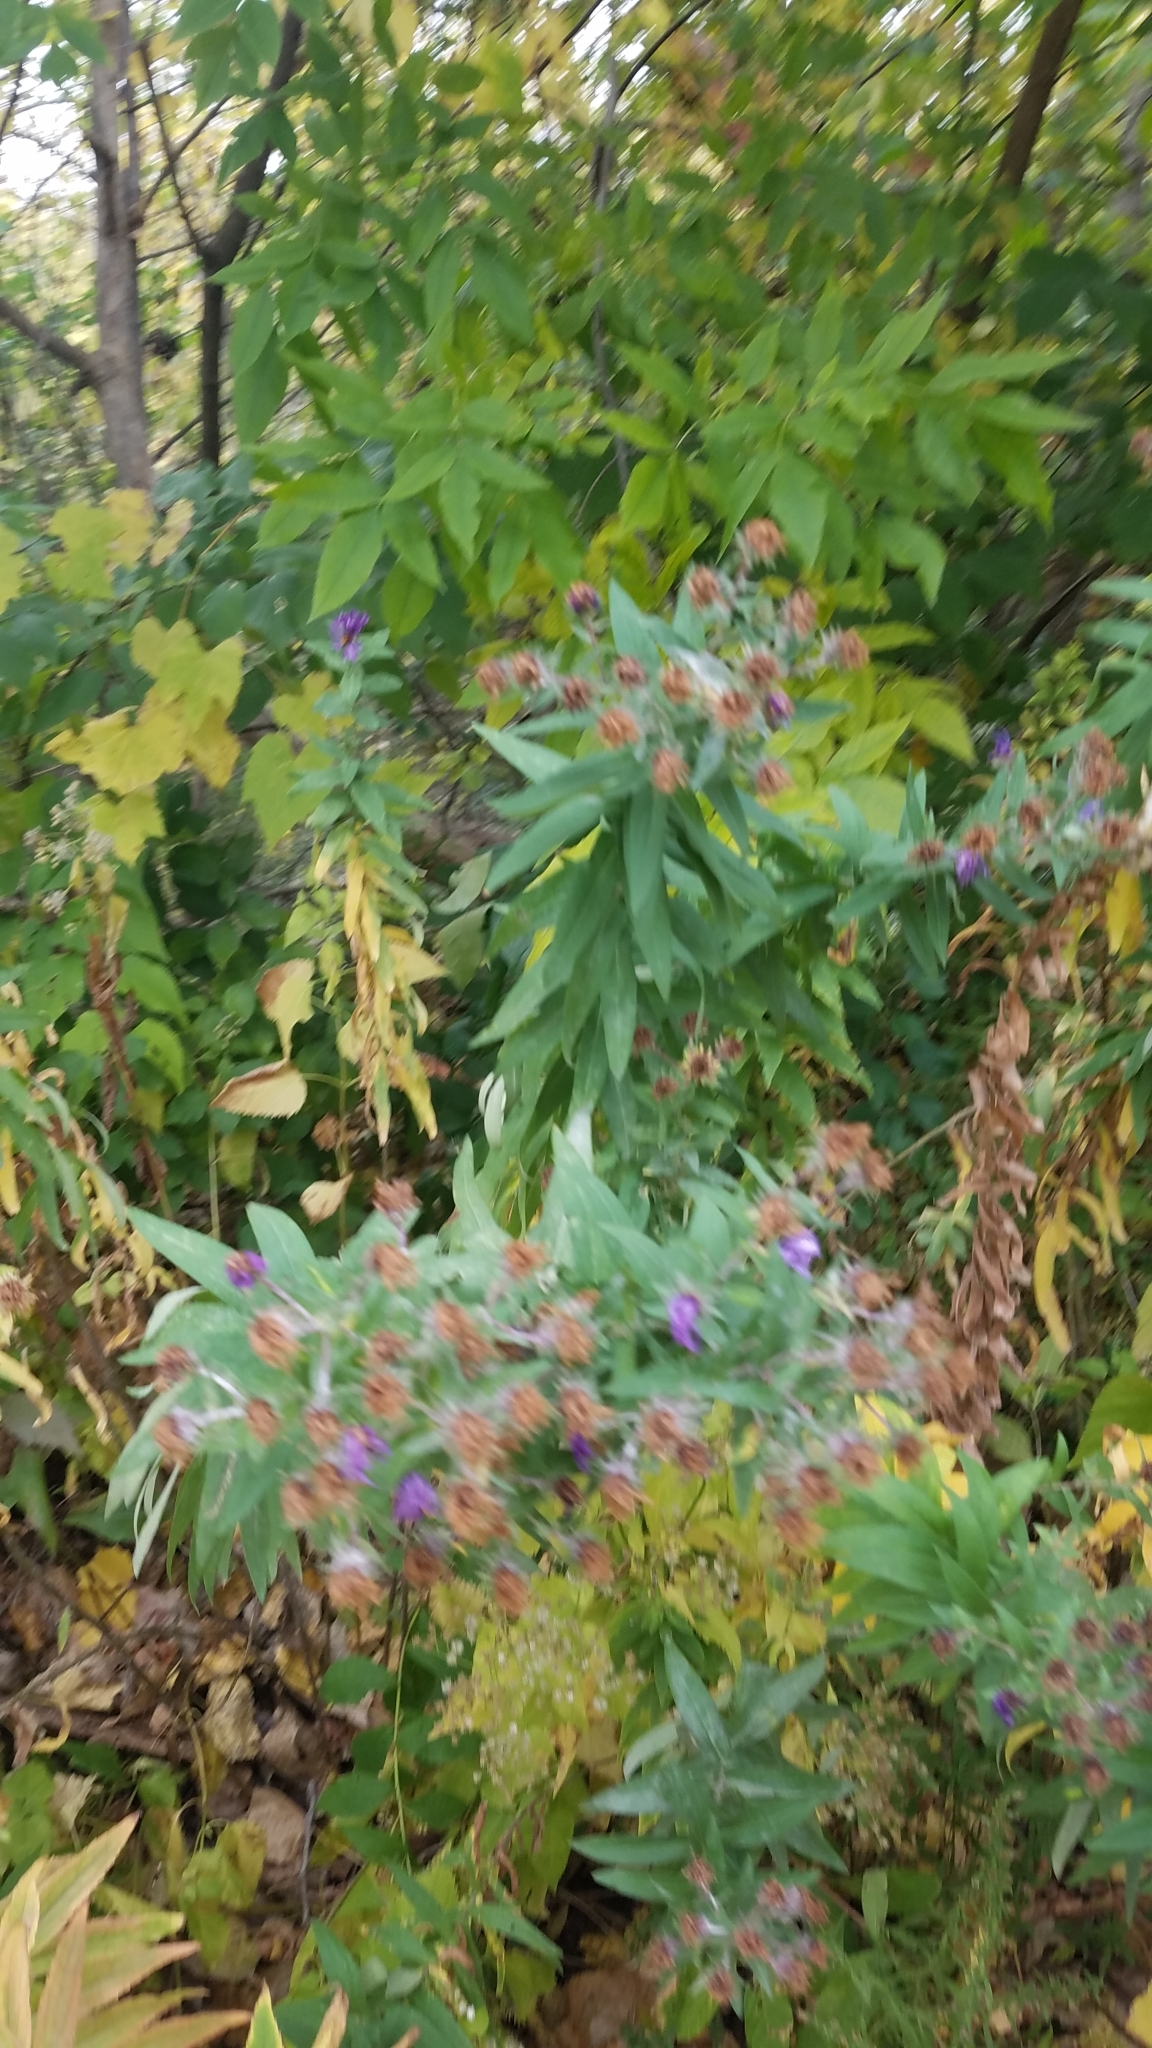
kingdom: Plantae
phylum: Tracheophyta
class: Magnoliopsida
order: Asterales
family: Asteraceae
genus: Symphyotrichum
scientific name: Symphyotrichum novae-angliae
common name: Michaelmas daisy
